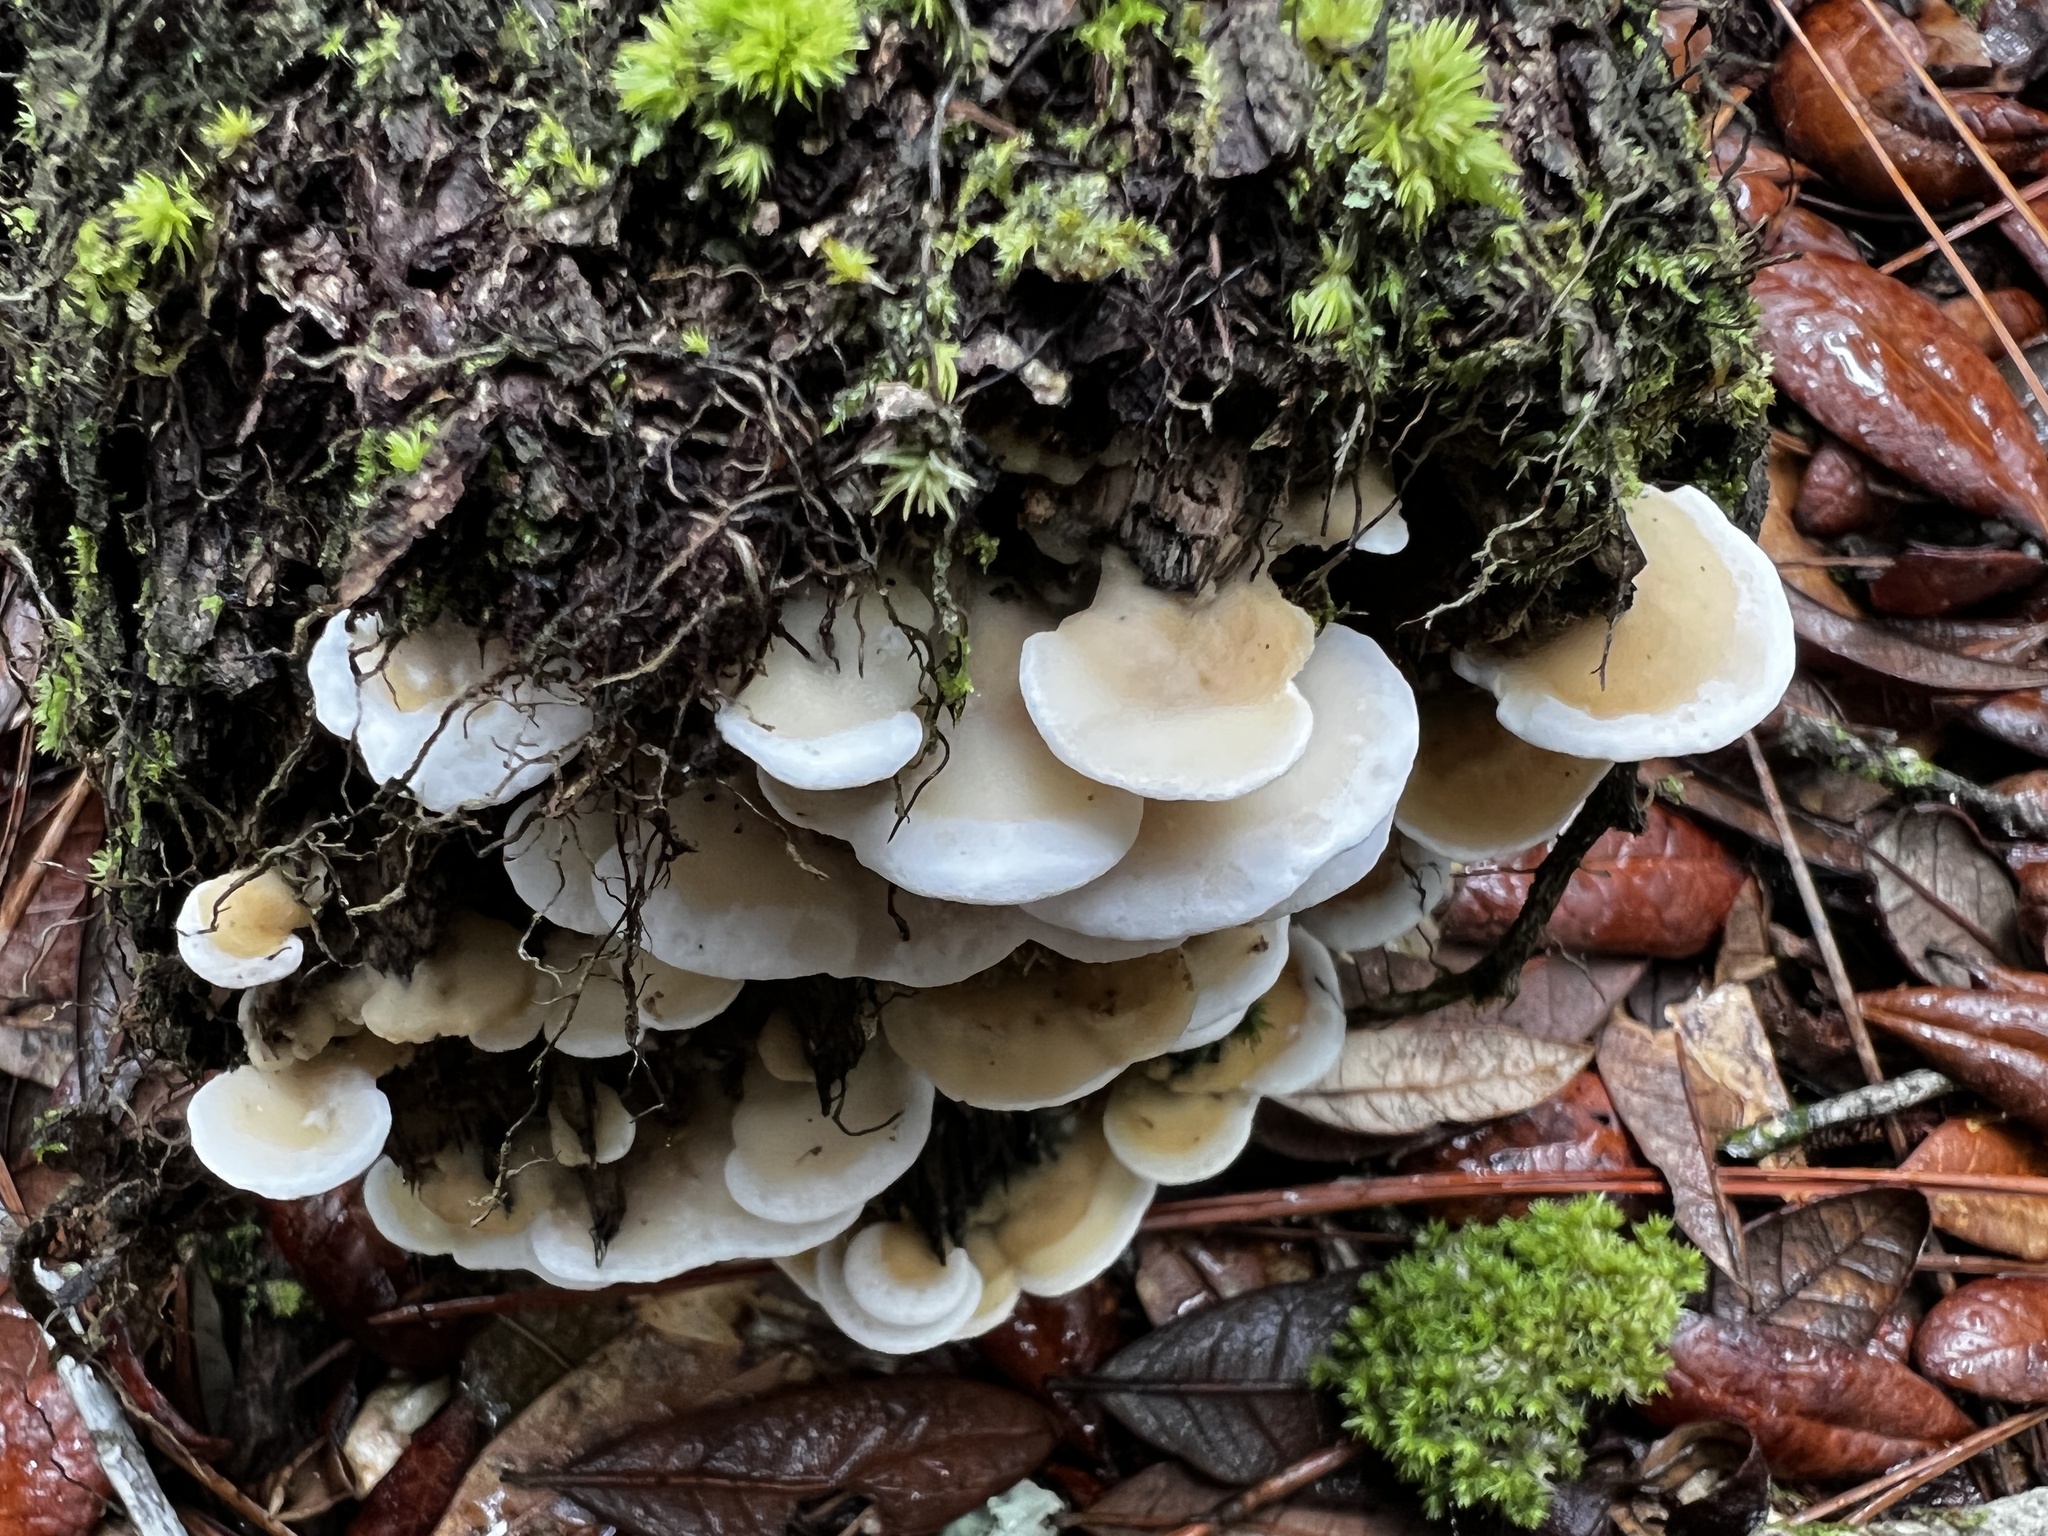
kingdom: Fungi
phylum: Basidiomycota
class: Agaricomycetes
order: Polyporales
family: Irpicaceae
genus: Vitreoporus
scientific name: Vitreoporus dichrous
